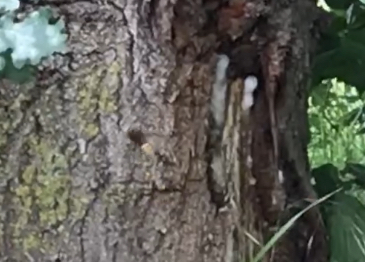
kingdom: Animalia
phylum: Arthropoda
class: Insecta
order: Hymenoptera
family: Vespidae
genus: Vespa
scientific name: Vespa crabro
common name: Hornet
